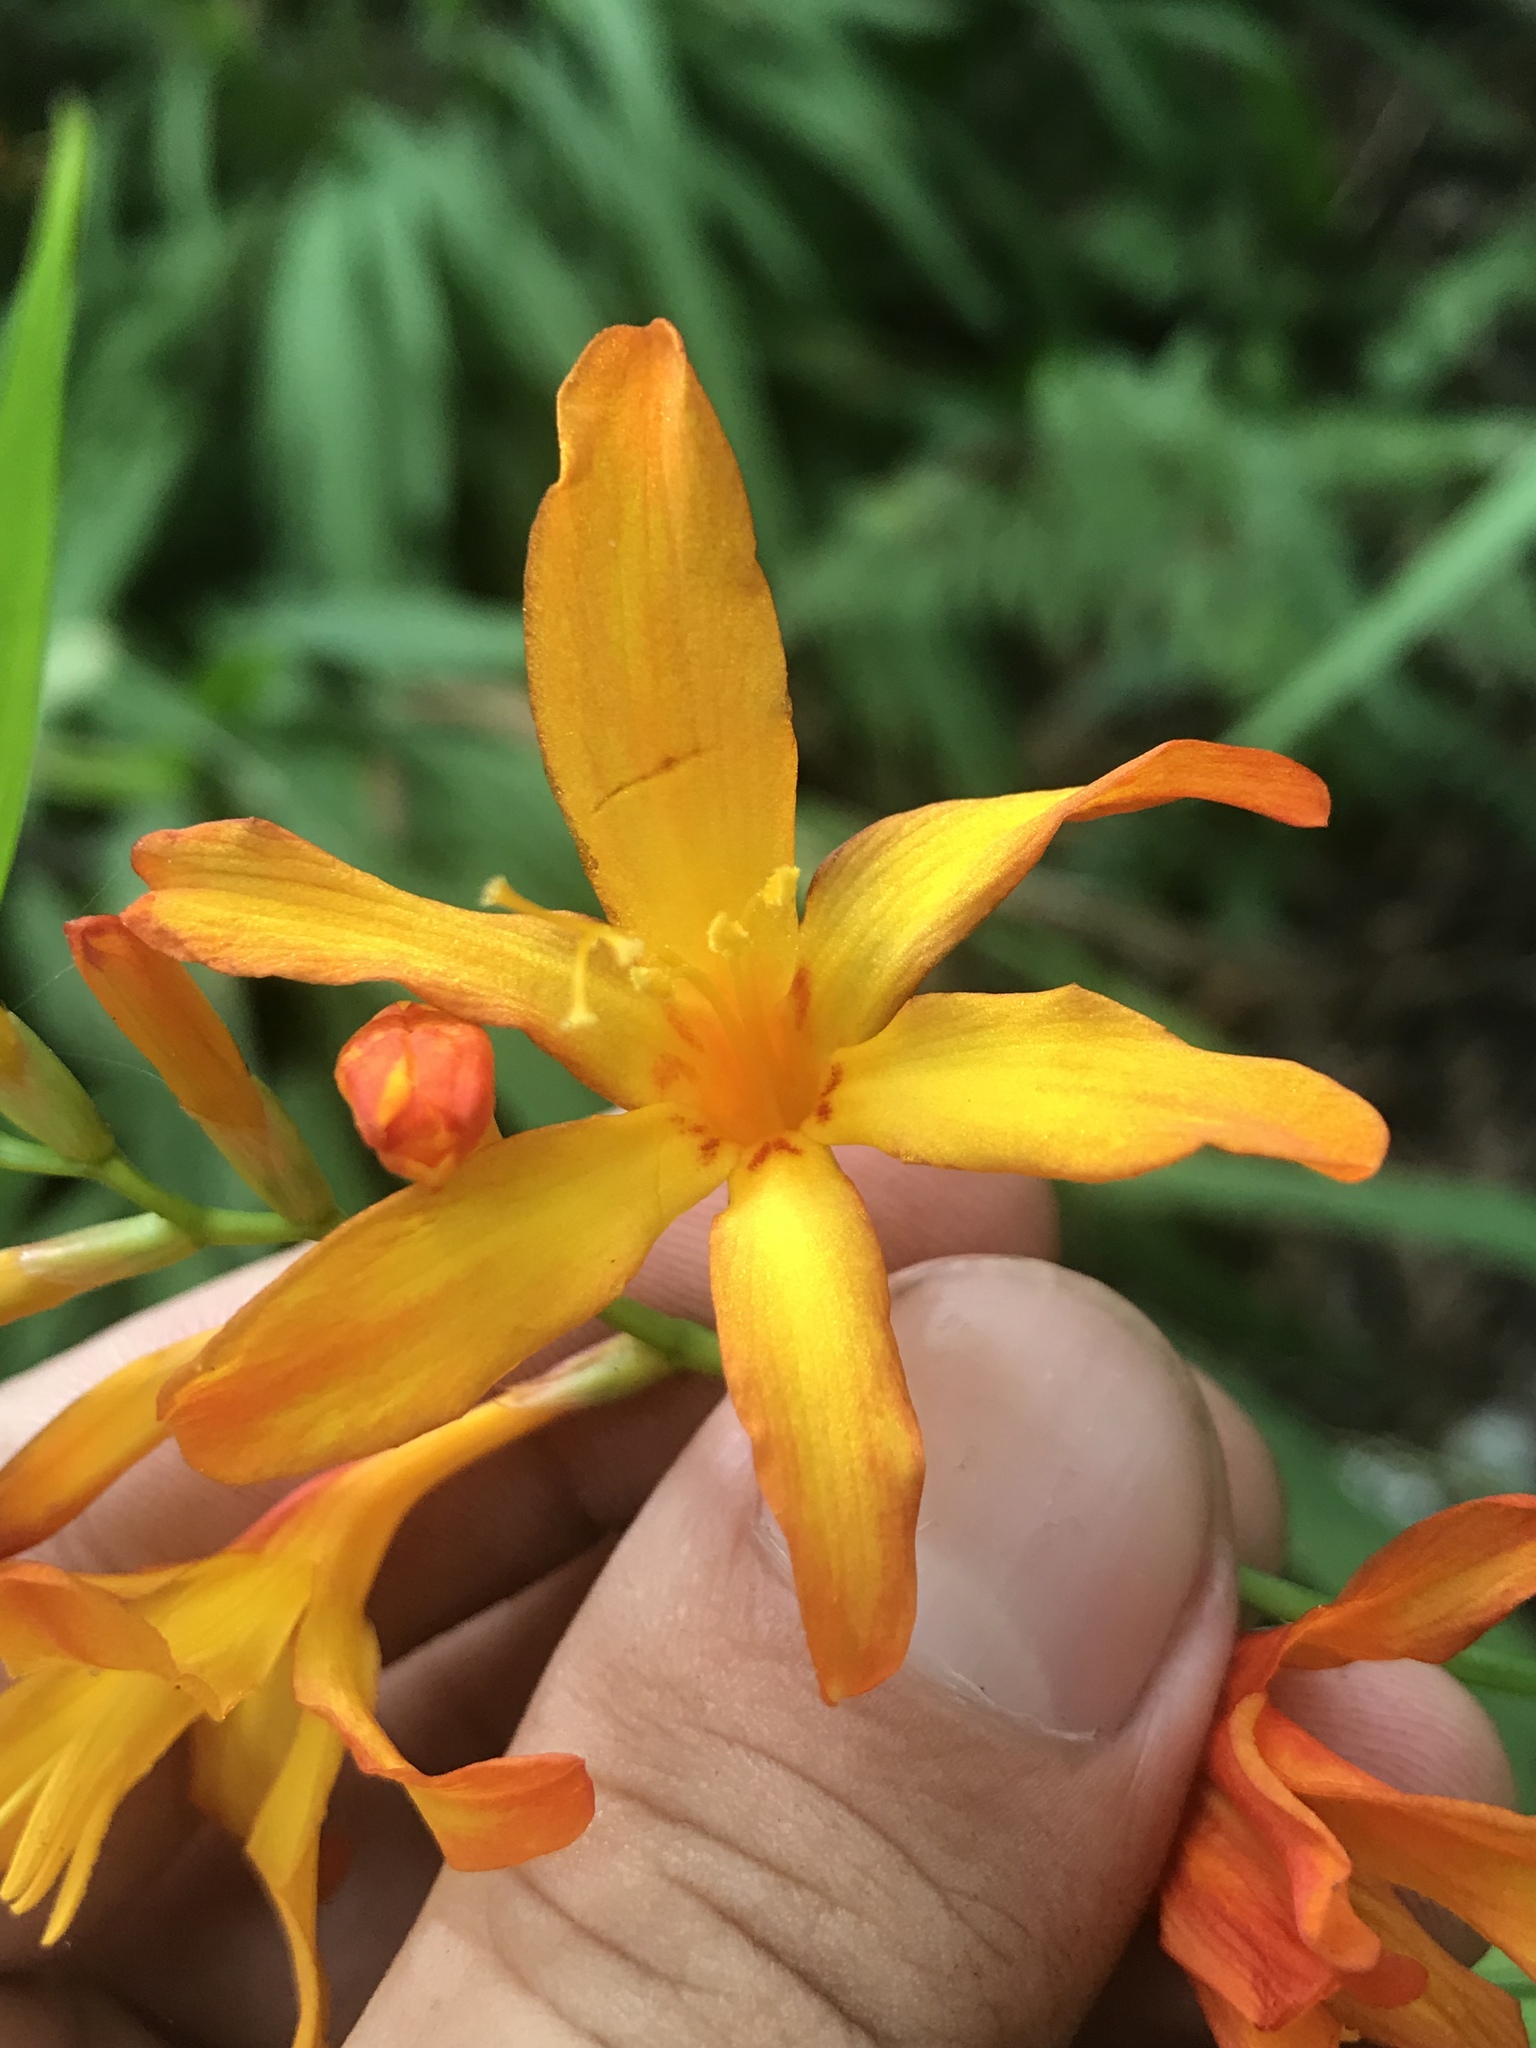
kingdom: Plantae
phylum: Tracheophyta
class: Liliopsida
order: Asparagales
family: Iridaceae
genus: Crocosmia
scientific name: Crocosmia crocosmiiflora
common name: Montbretia
